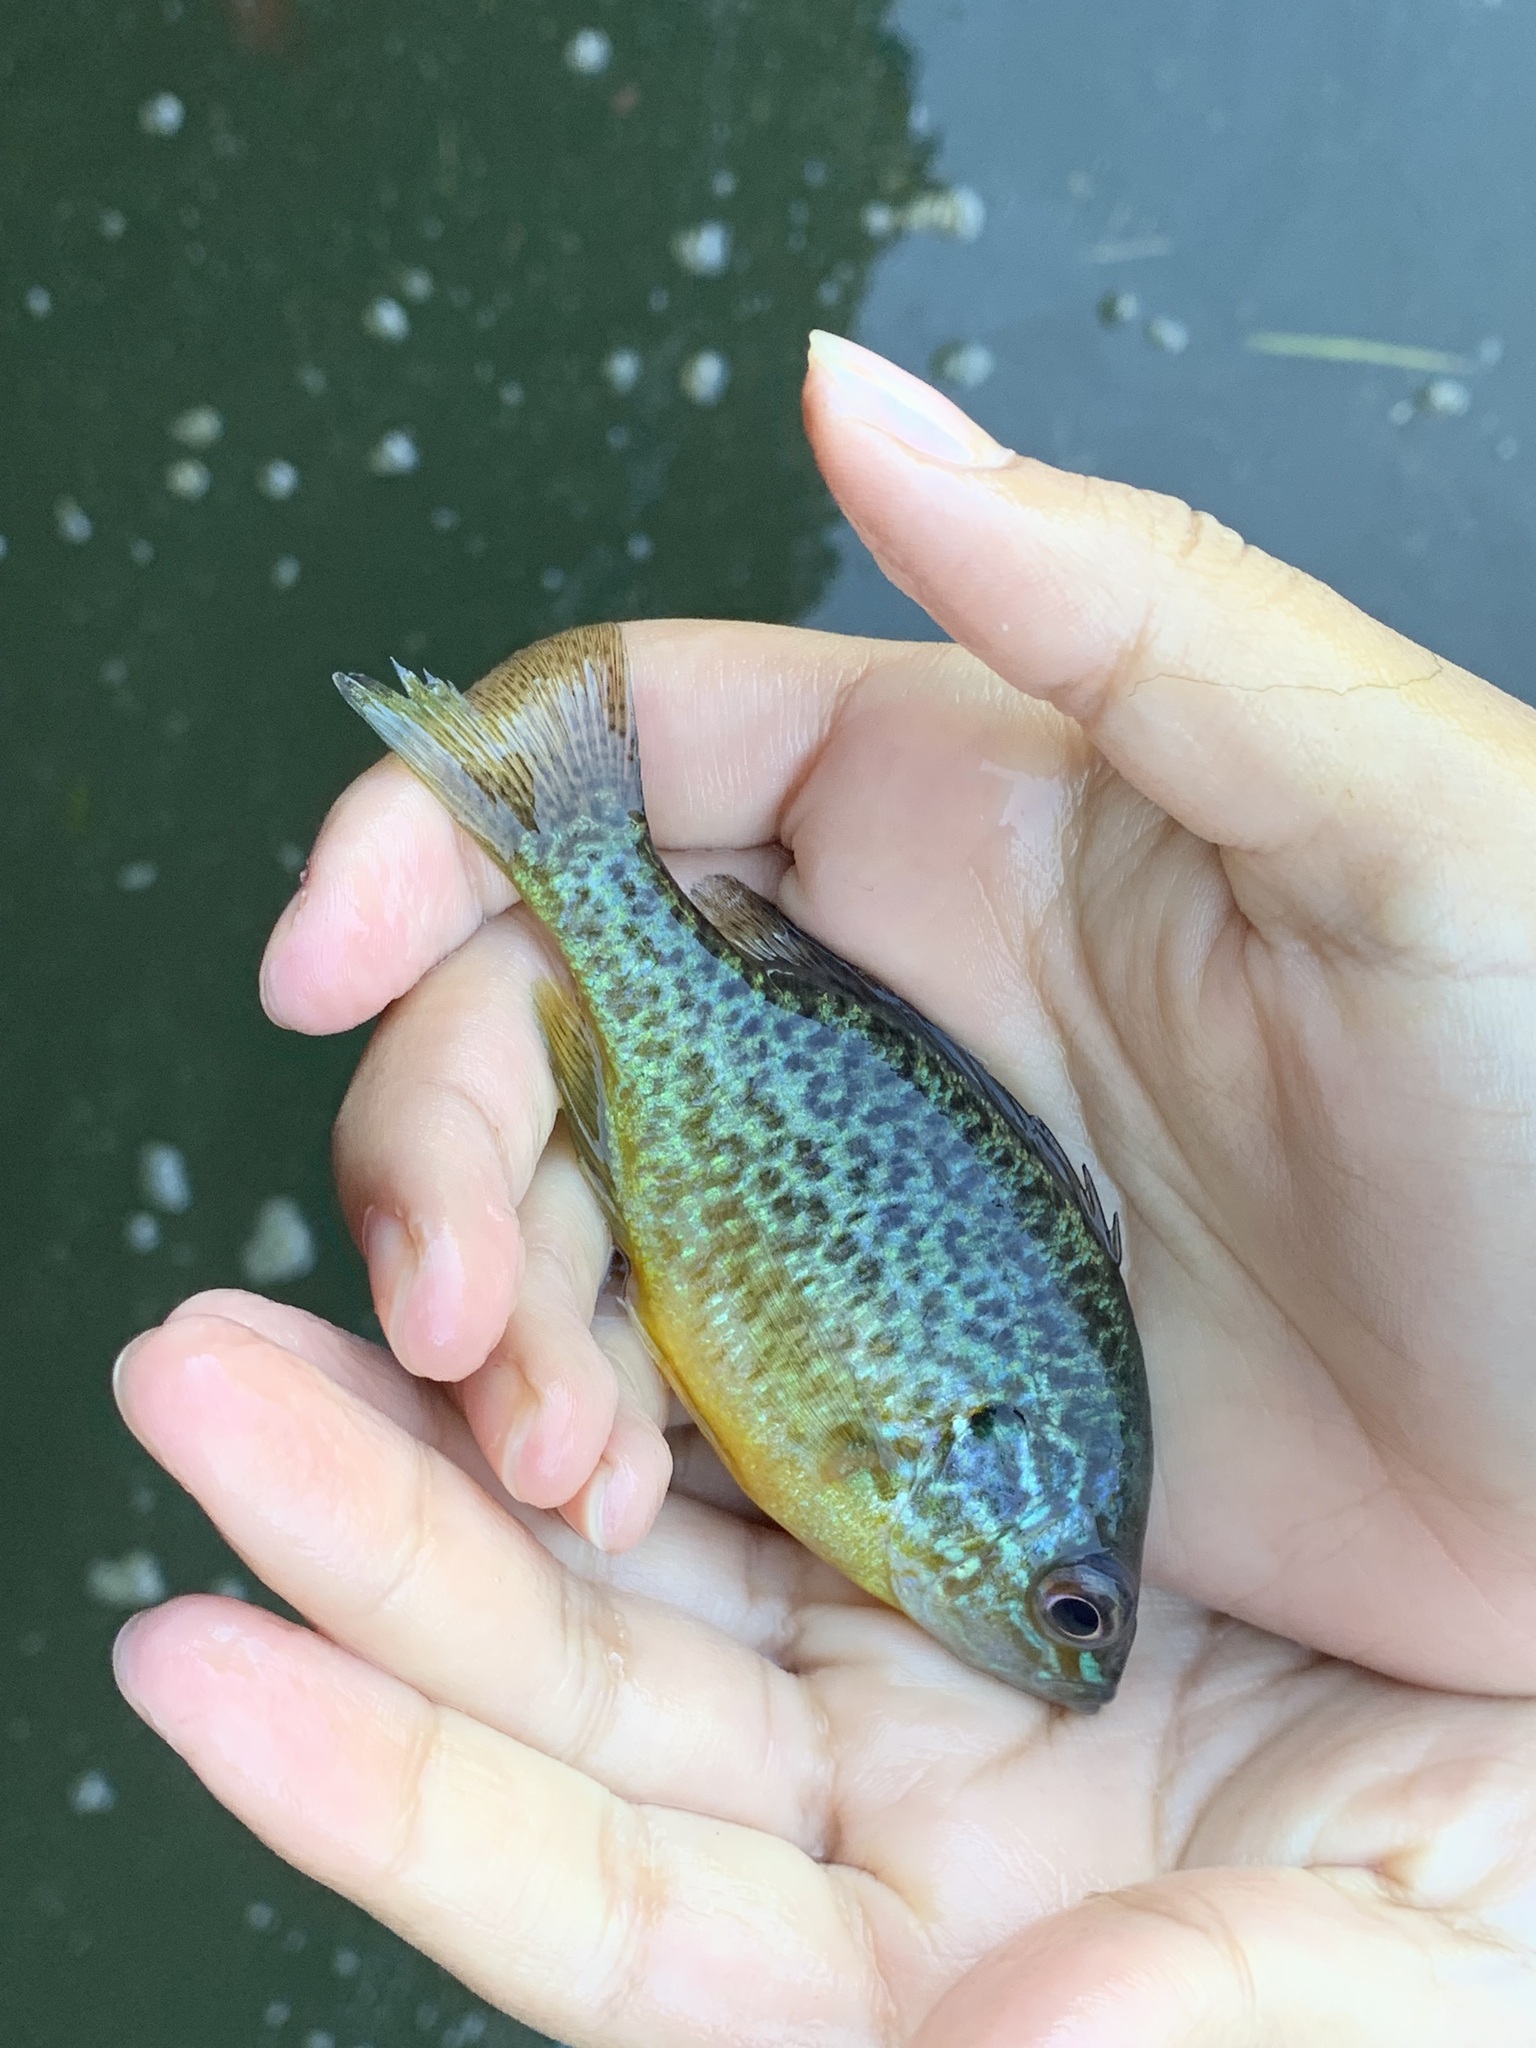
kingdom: Animalia
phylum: Chordata
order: Perciformes
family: Centrarchidae
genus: Lepomis
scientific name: Lepomis gibbosus
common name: Pumpkinseed
